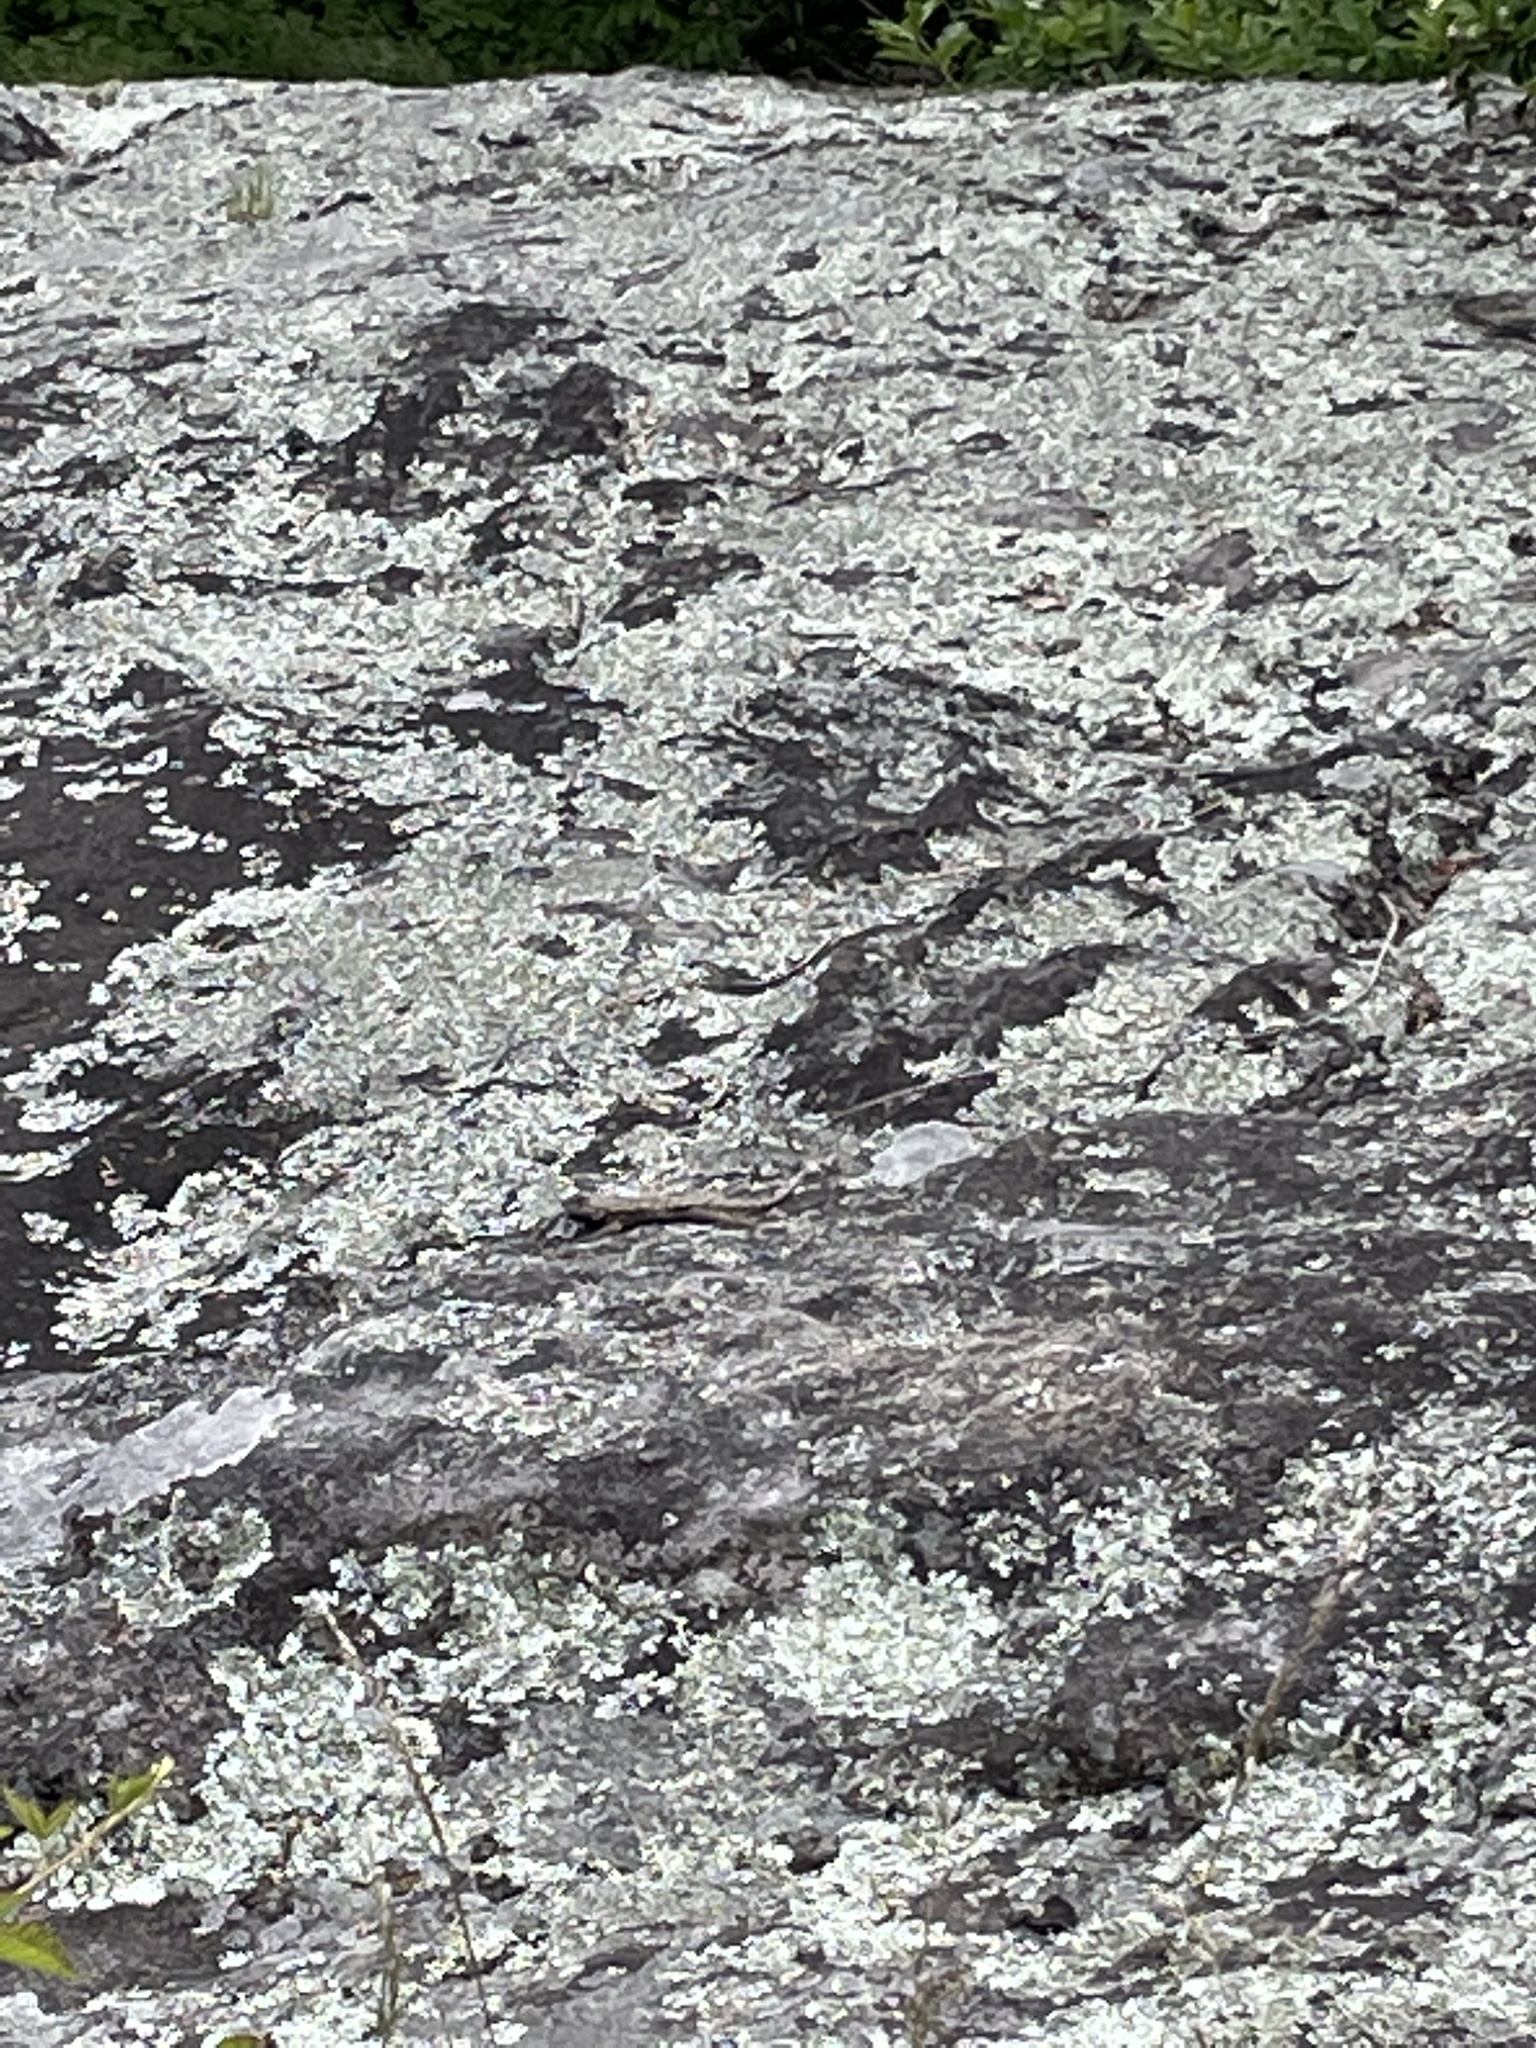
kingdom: Animalia
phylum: Chordata
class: Squamata
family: Phrynosomatidae
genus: Sceloporus
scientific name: Sceloporus undulatus
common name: Eastern fence lizard
